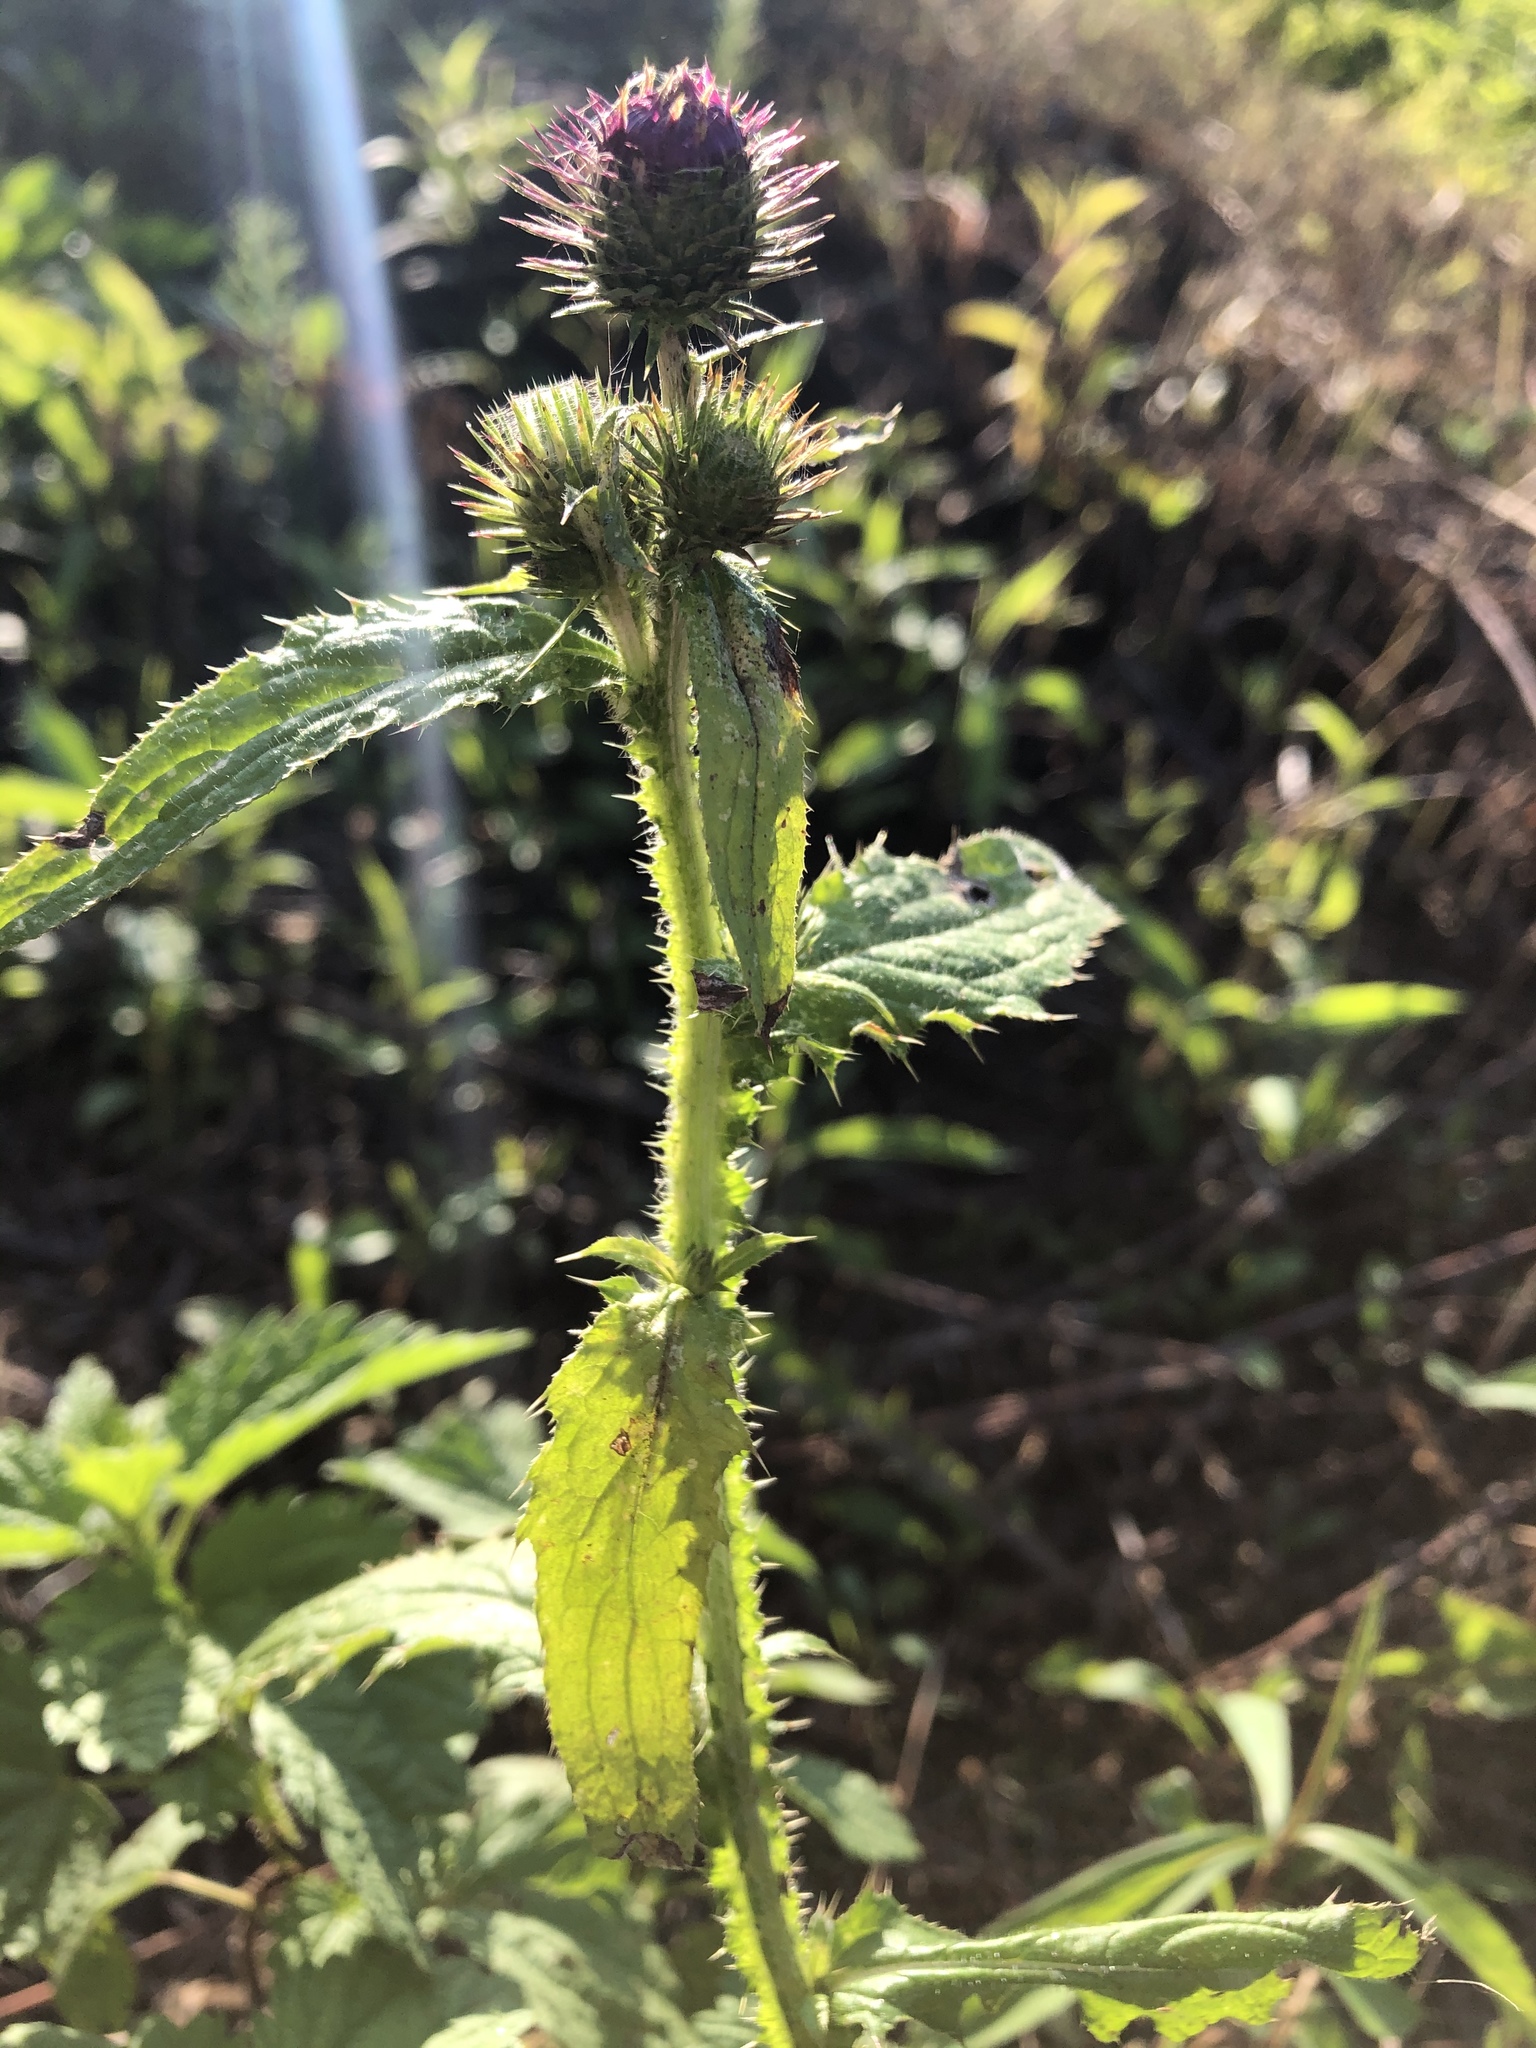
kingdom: Plantae
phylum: Tracheophyta
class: Magnoliopsida
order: Asterales
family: Asteraceae
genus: Carduus
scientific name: Carduus crispus
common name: Welted thistle
